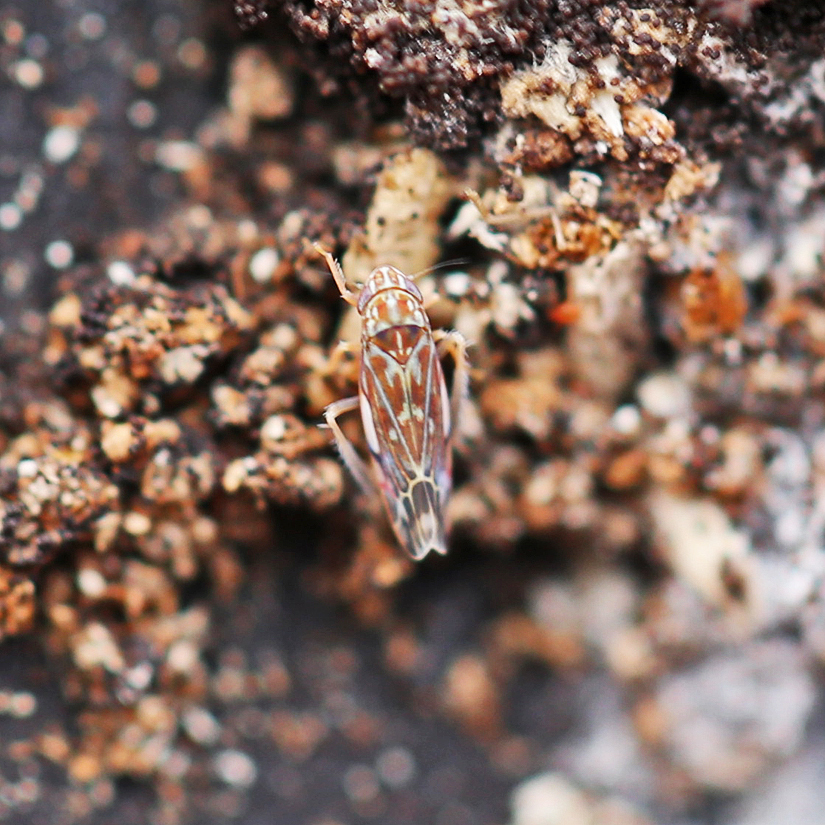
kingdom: Animalia
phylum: Arthropoda
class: Insecta
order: Hemiptera
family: Cicadellidae
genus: Erasmoneura
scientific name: Erasmoneura vulnerata
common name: The wounded leafhopper
